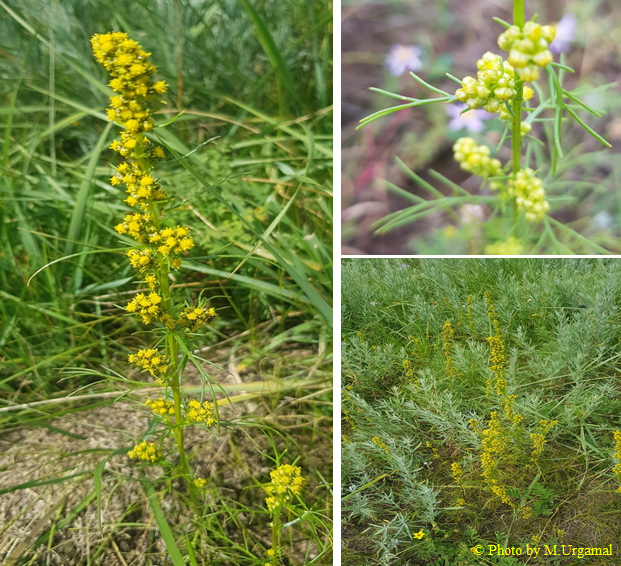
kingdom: Plantae
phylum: Tracheophyta
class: Magnoliopsida
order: Asterales
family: Asteraceae
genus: Artemisia
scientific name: Artemisia palustris
